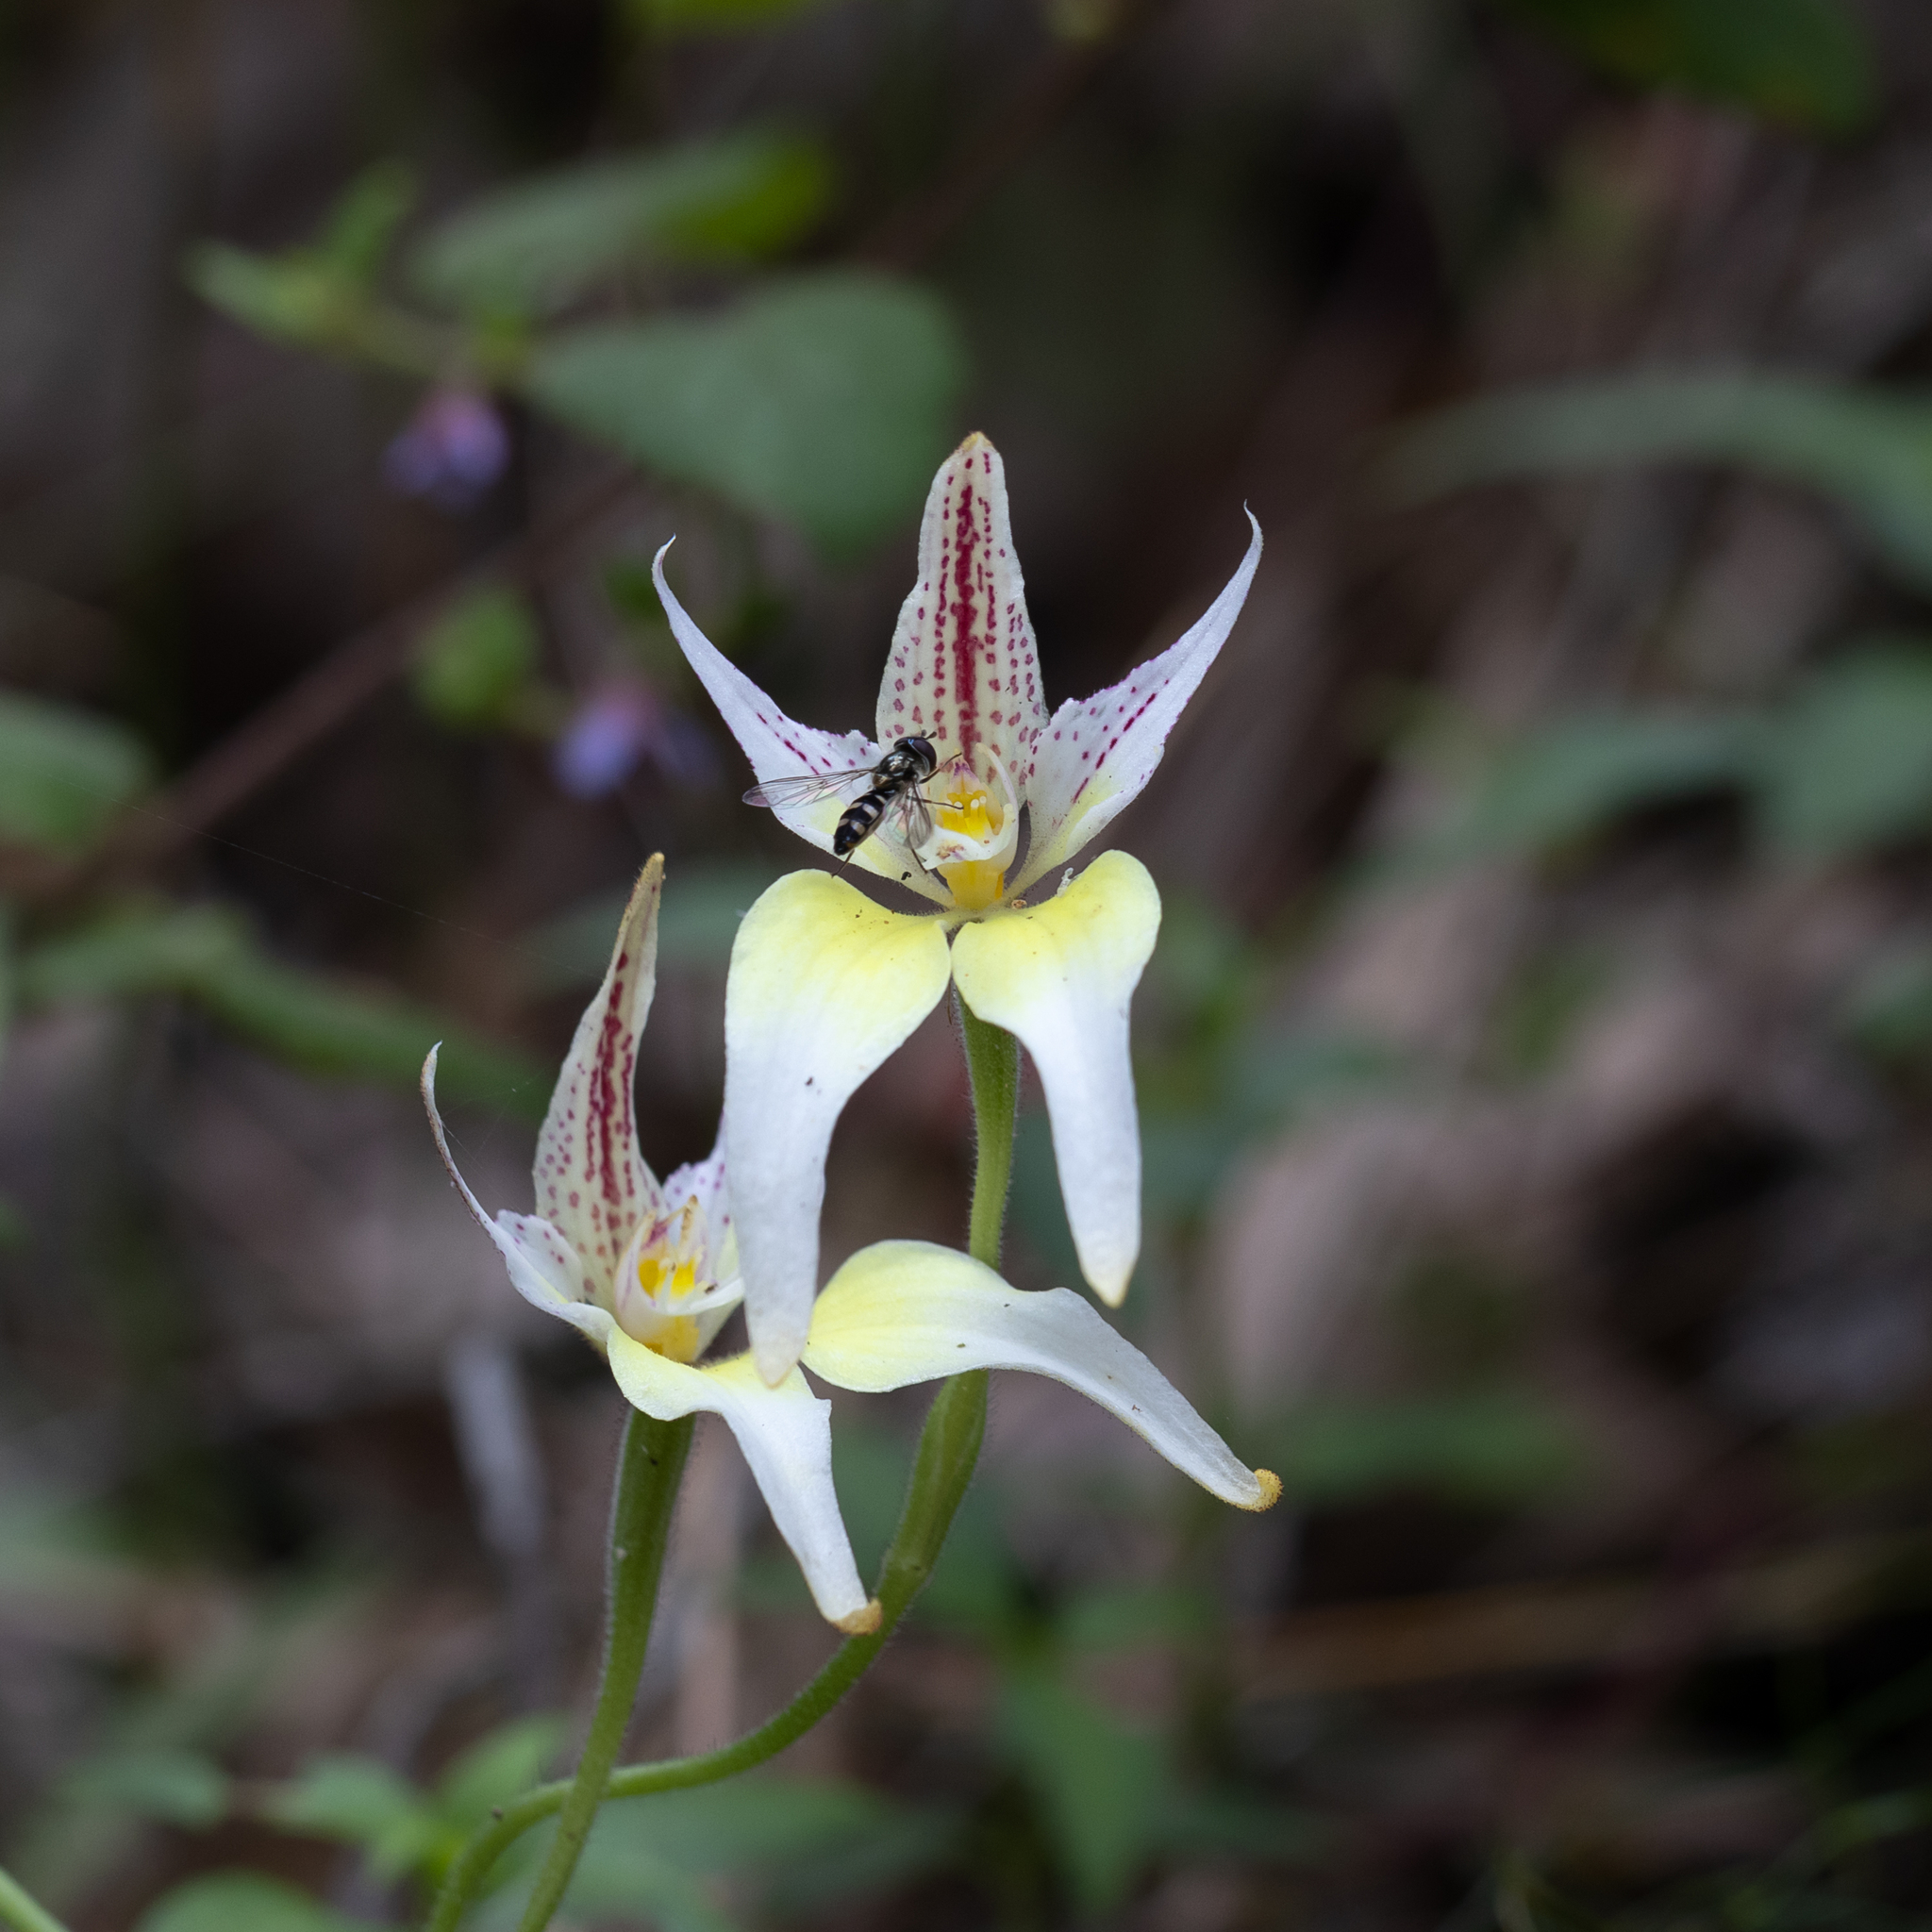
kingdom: Plantae
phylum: Tracheophyta
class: Liliopsida
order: Asparagales
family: Orchidaceae
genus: Caladenia
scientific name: Caladenia flava
